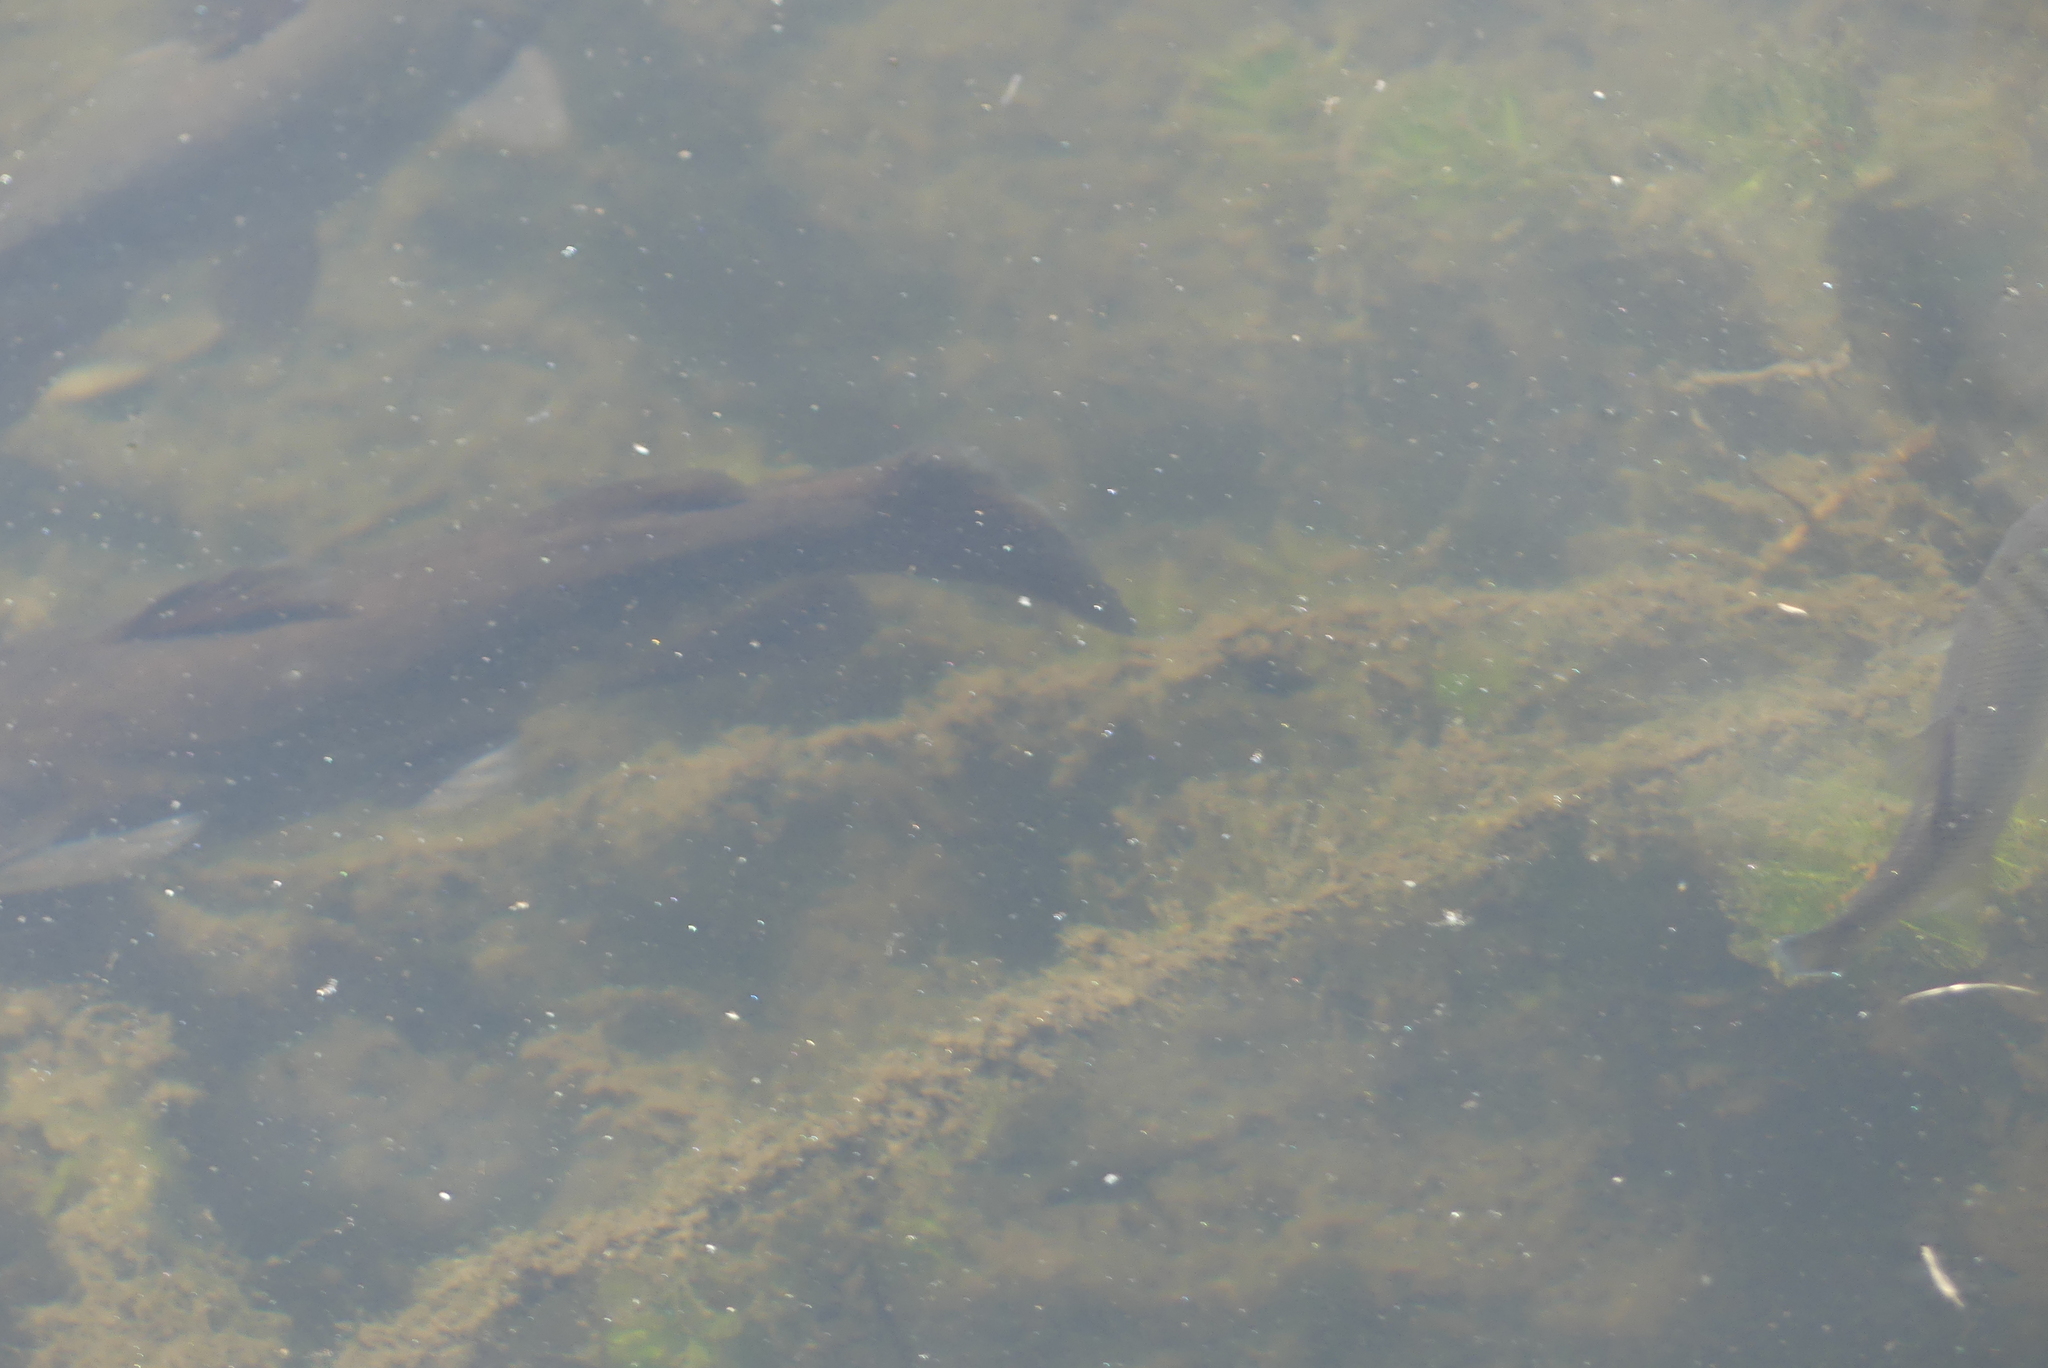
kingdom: Animalia
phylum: Chordata
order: Siluriformes
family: Ictaluridae
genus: Ameiurus
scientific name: Ameiurus nebulosus
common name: Brown bullhead
